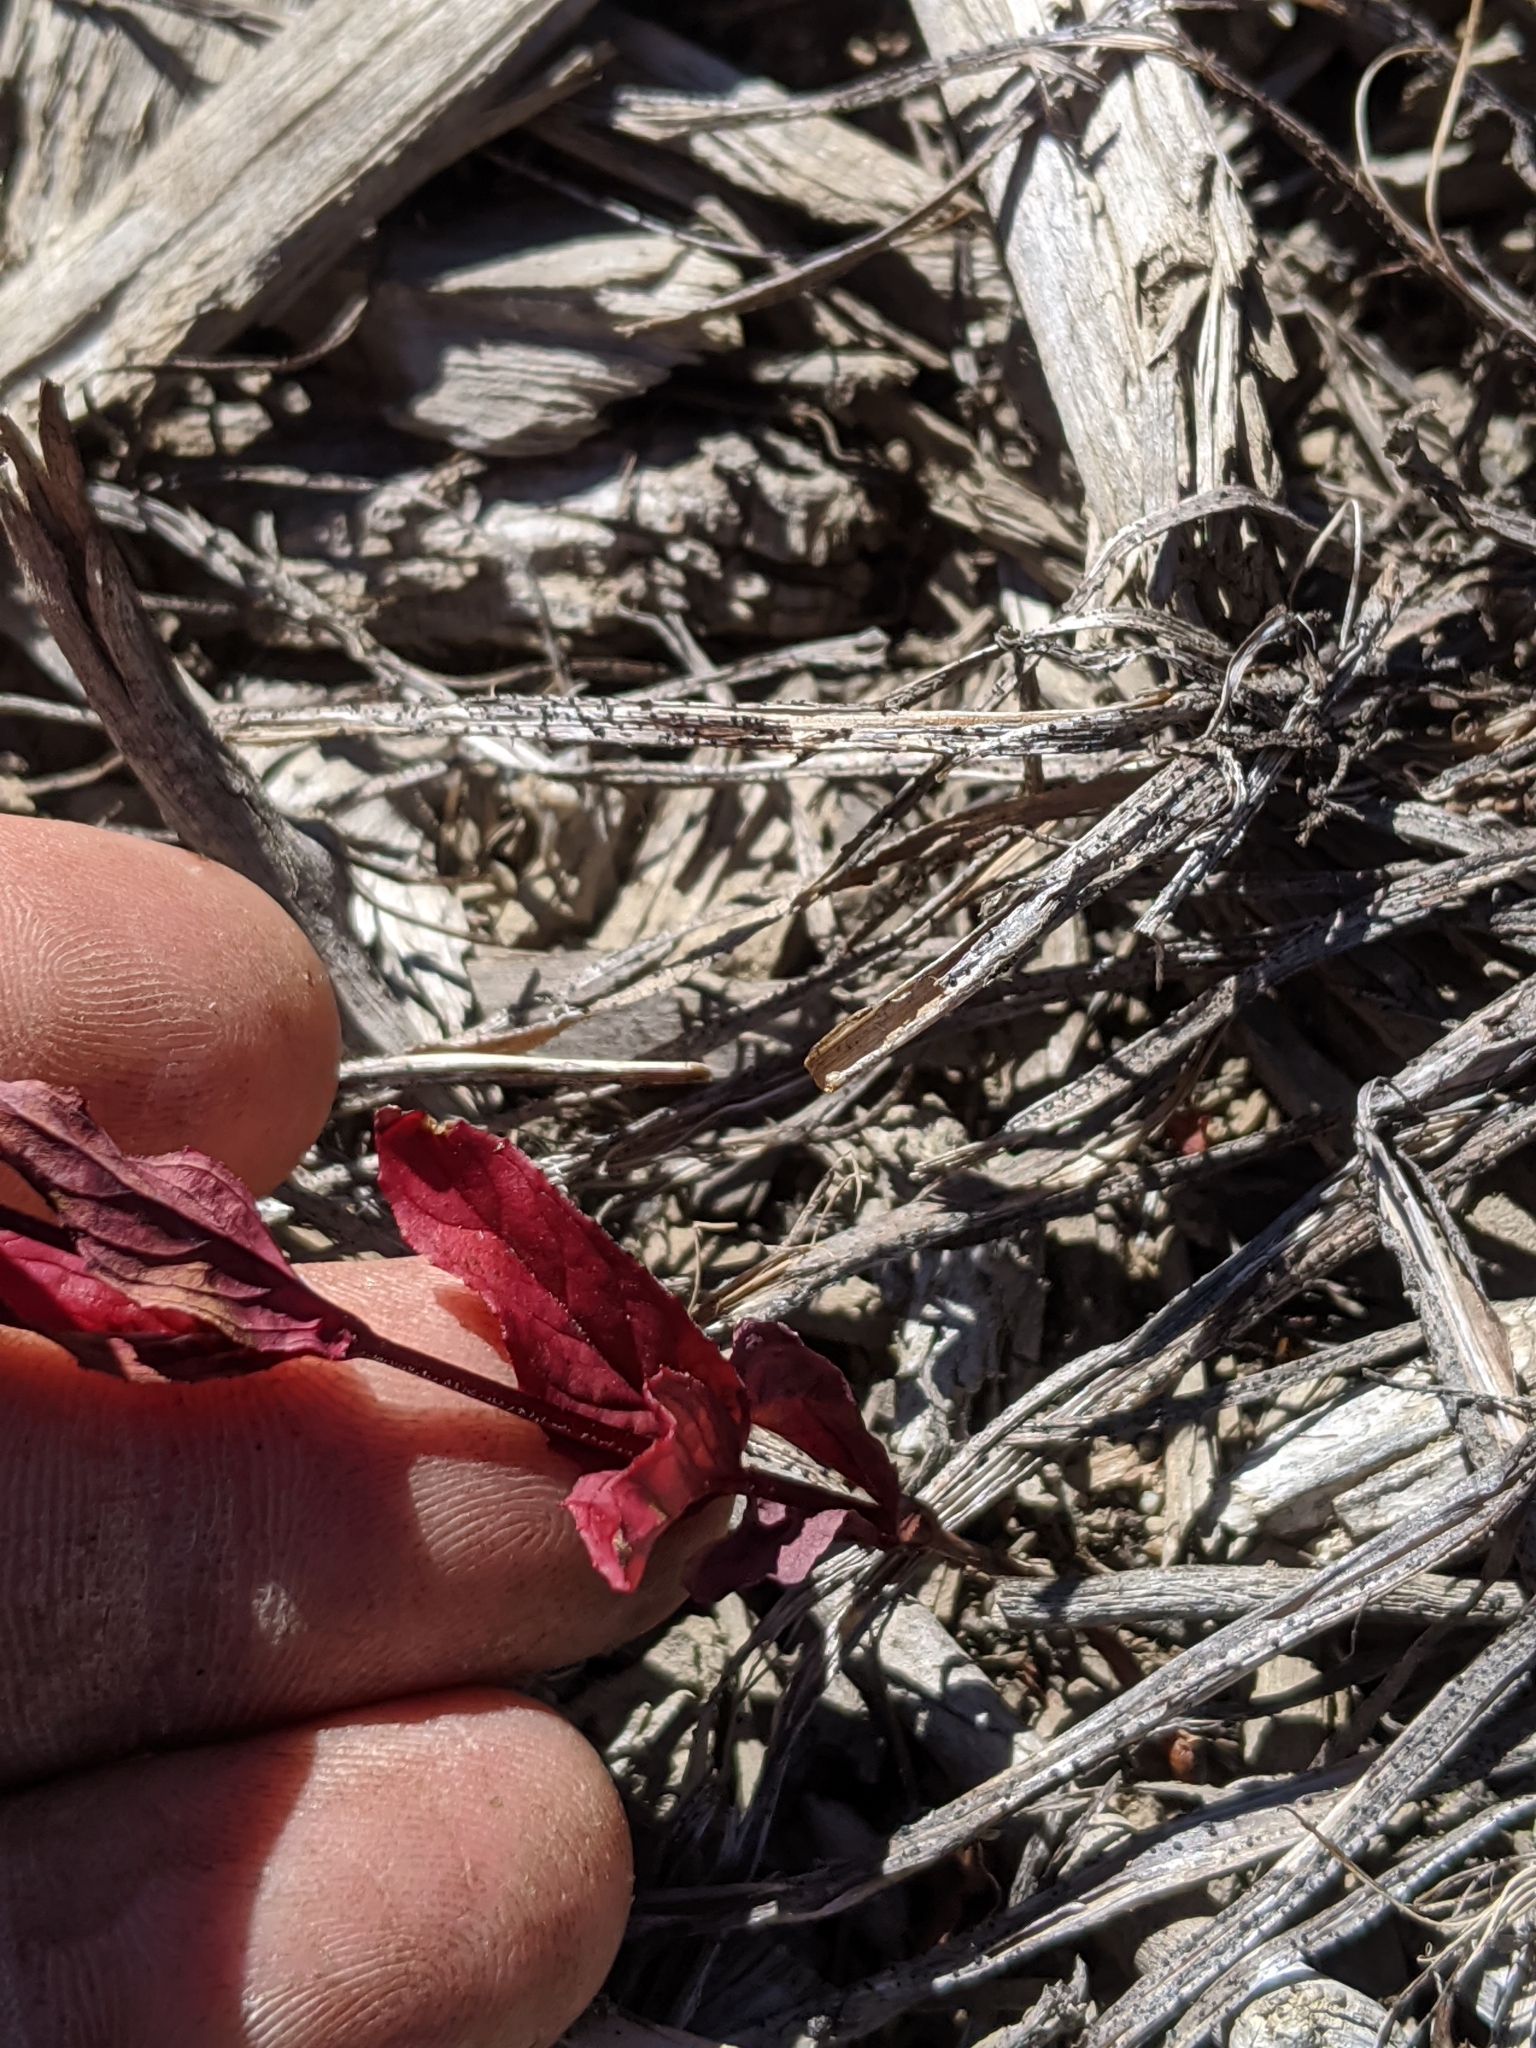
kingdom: Plantae
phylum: Tracheophyta
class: Magnoliopsida
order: Myrtales
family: Onagraceae
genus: Epilobium
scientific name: Epilobium ciliatum
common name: American willowherb
